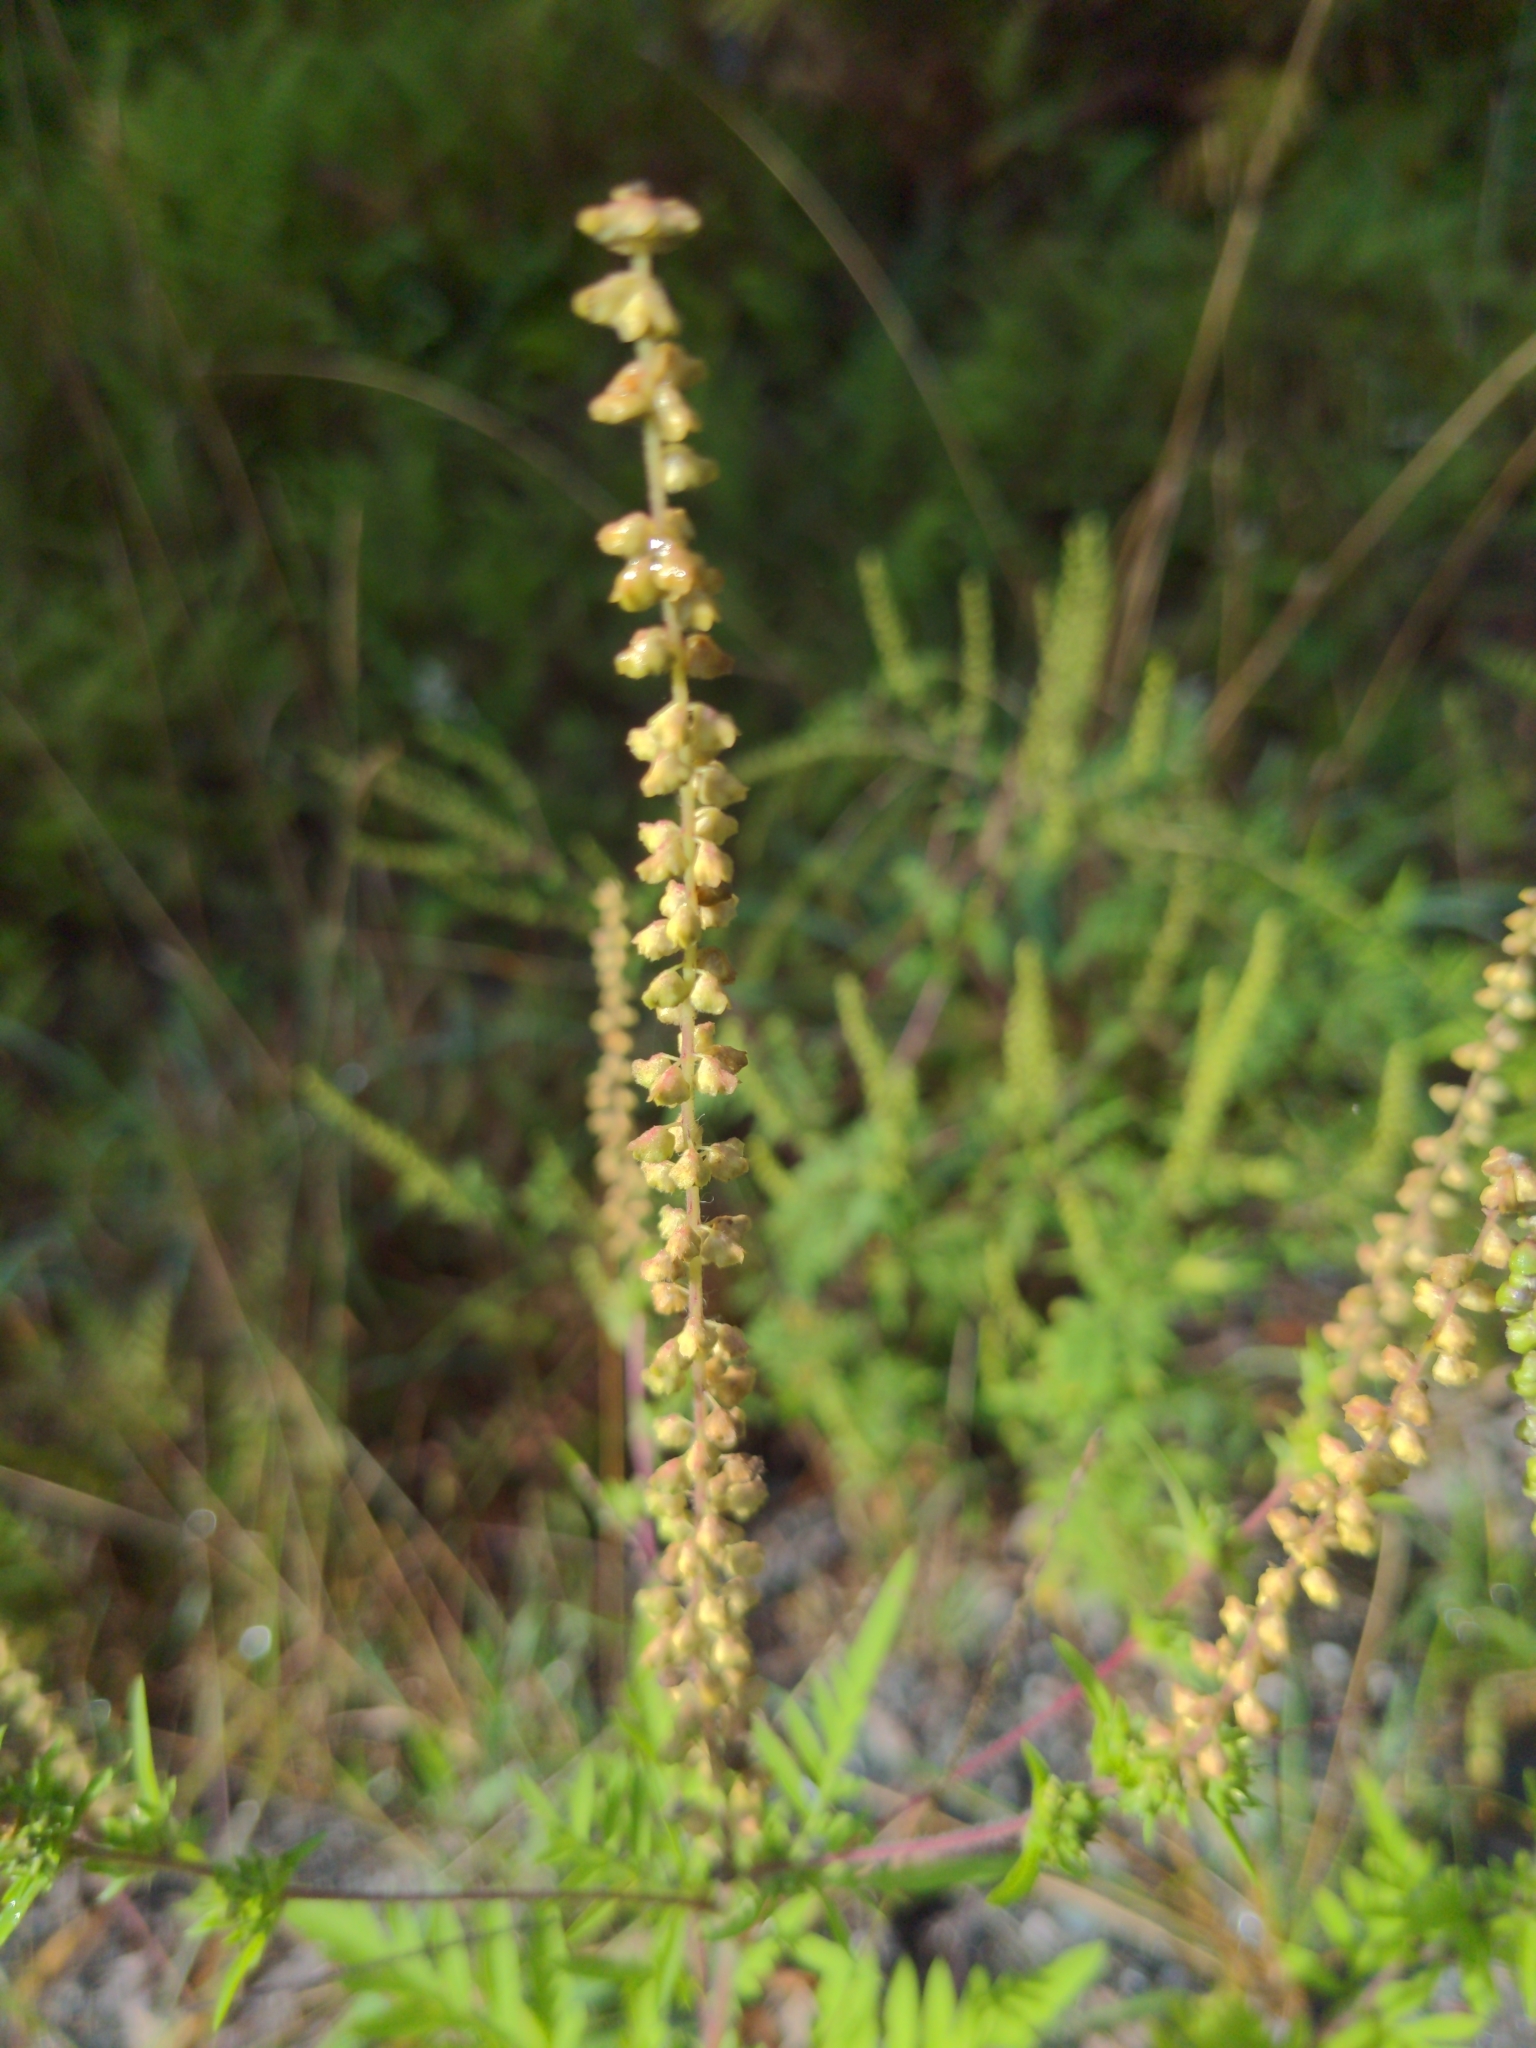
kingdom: Plantae
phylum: Tracheophyta
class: Magnoliopsida
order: Asterales
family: Asteraceae
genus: Ambrosia
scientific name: Ambrosia artemisiifolia
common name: Annual ragweed
